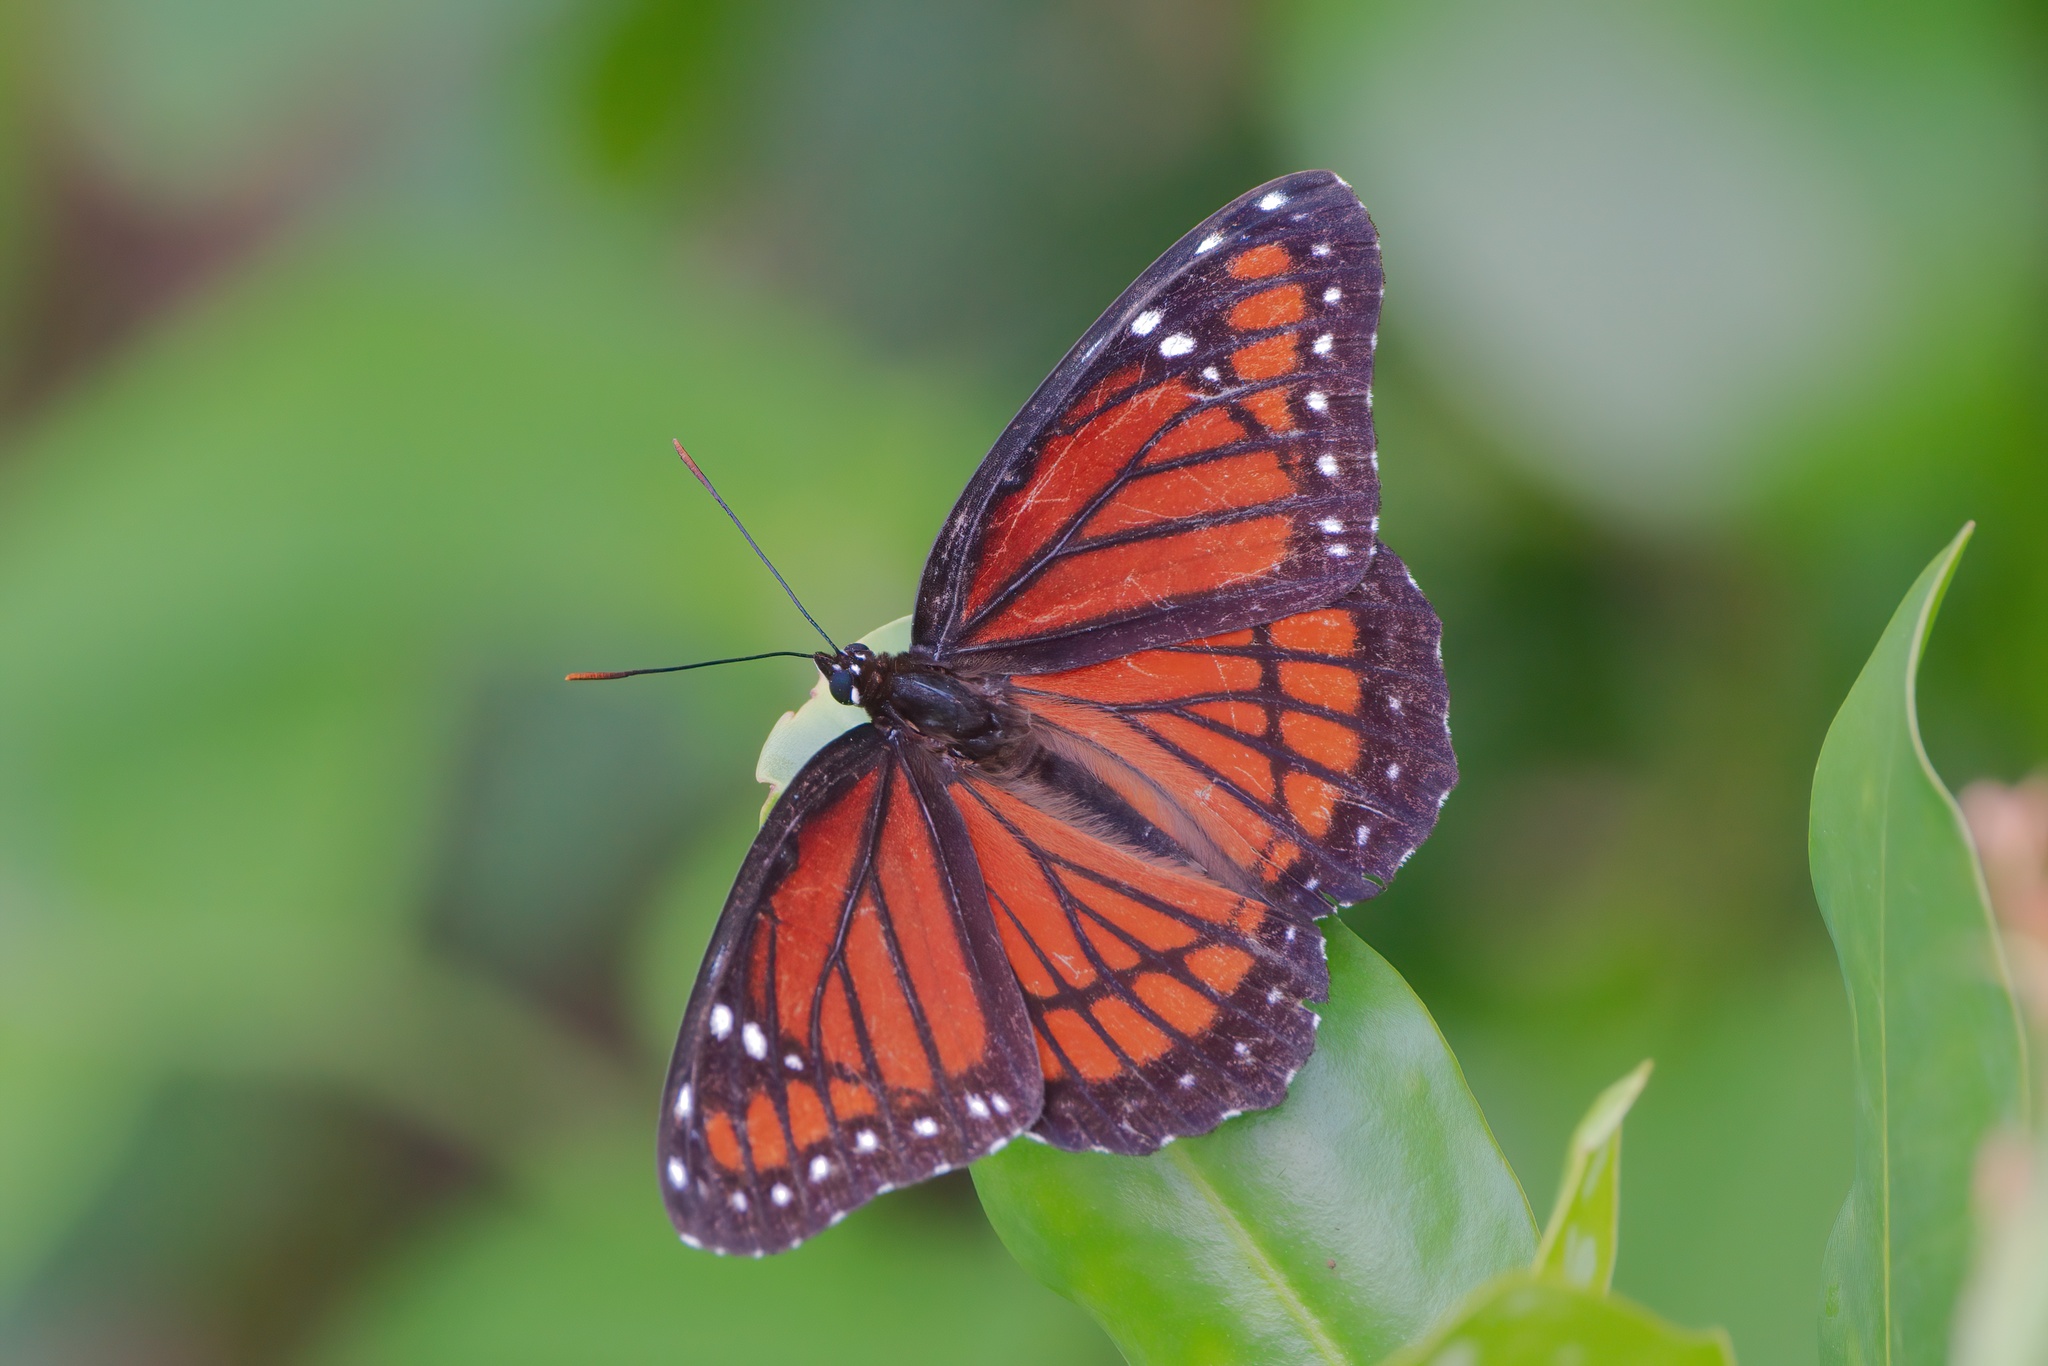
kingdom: Animalia
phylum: Arthropoda
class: Insecta
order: Lepidoptera
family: Nymphalidae
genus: Limenitis
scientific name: Limenitis archippus
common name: Viceroy
